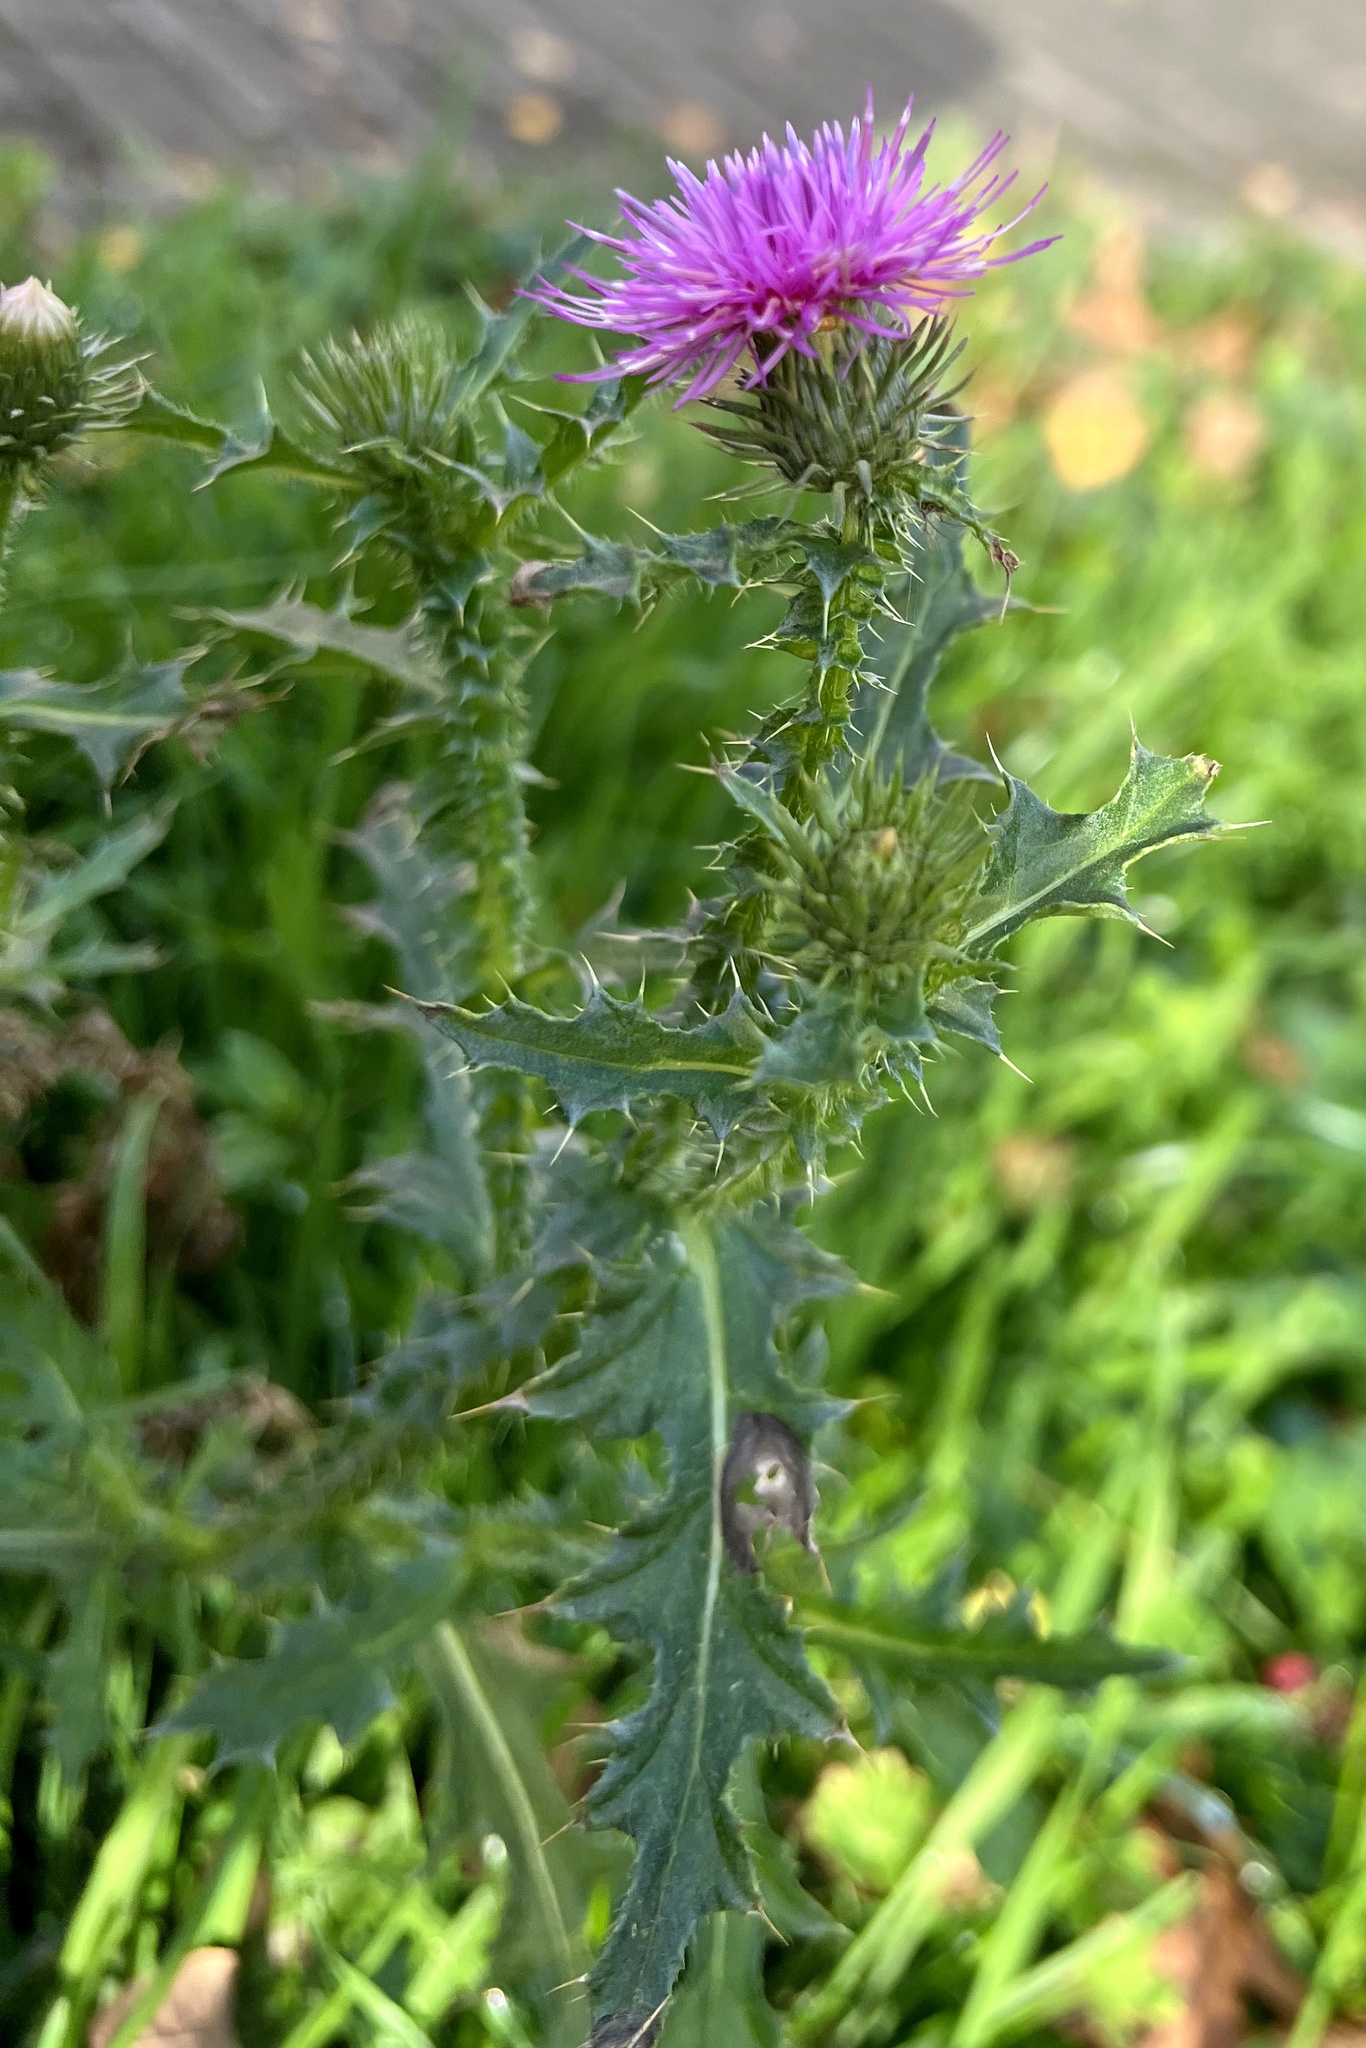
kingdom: Plantae
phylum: Tracheophyta
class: Magnoliopsida
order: Asterales
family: Asteraceae
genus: Carduus
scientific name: Carduus acanthoides
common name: Plumeless thistle
